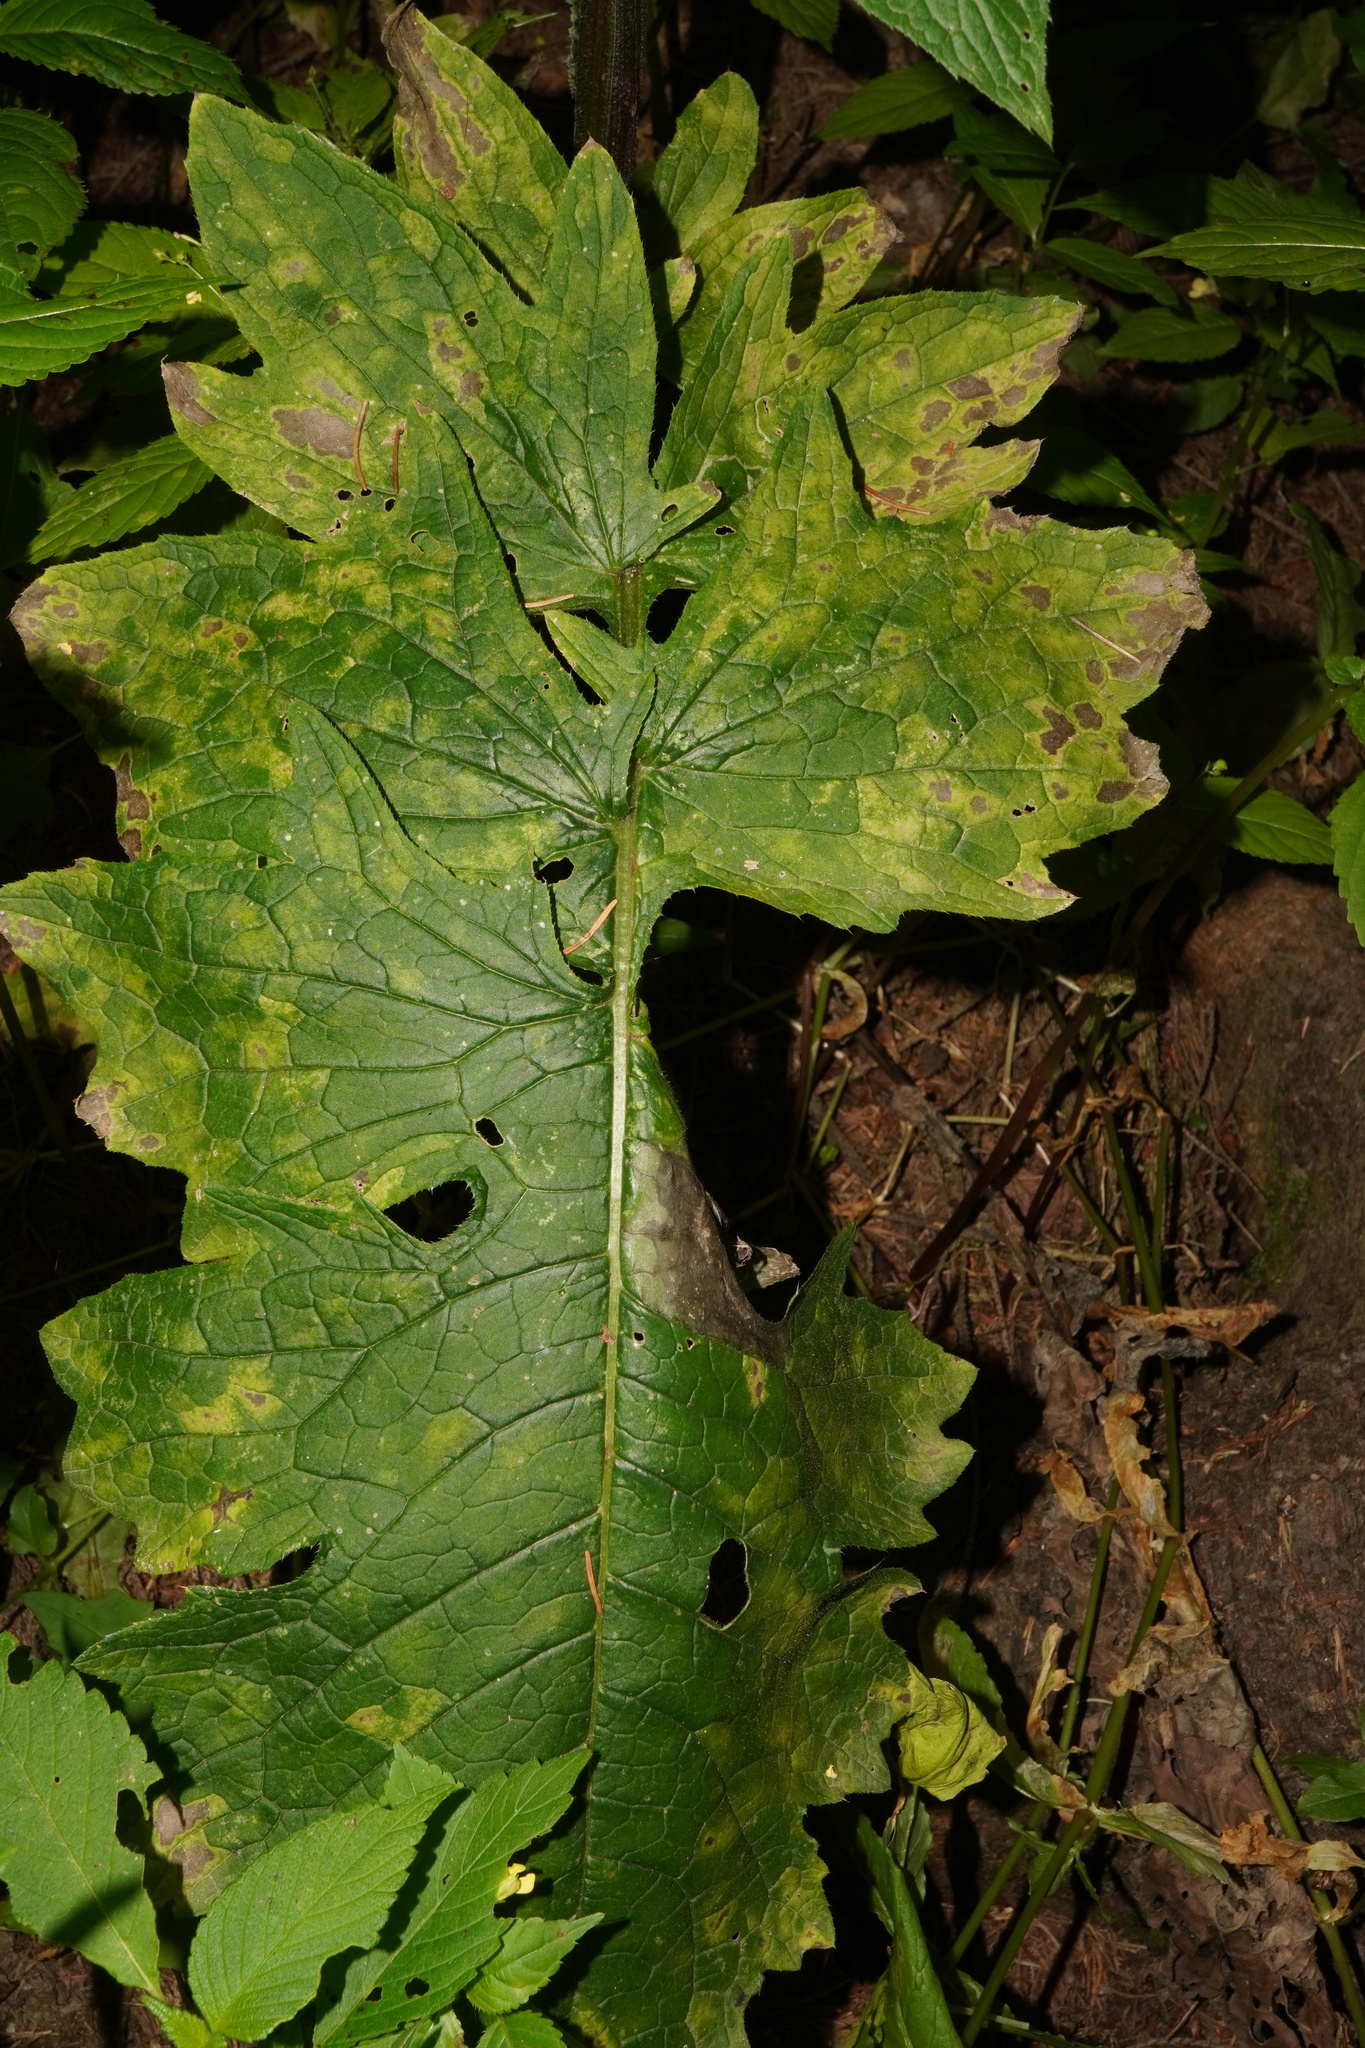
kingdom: Plantae
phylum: Tracheophyta
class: Magnoliopsida
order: Asterales
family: Asteraceae
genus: Carduus
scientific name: Carduus personata
